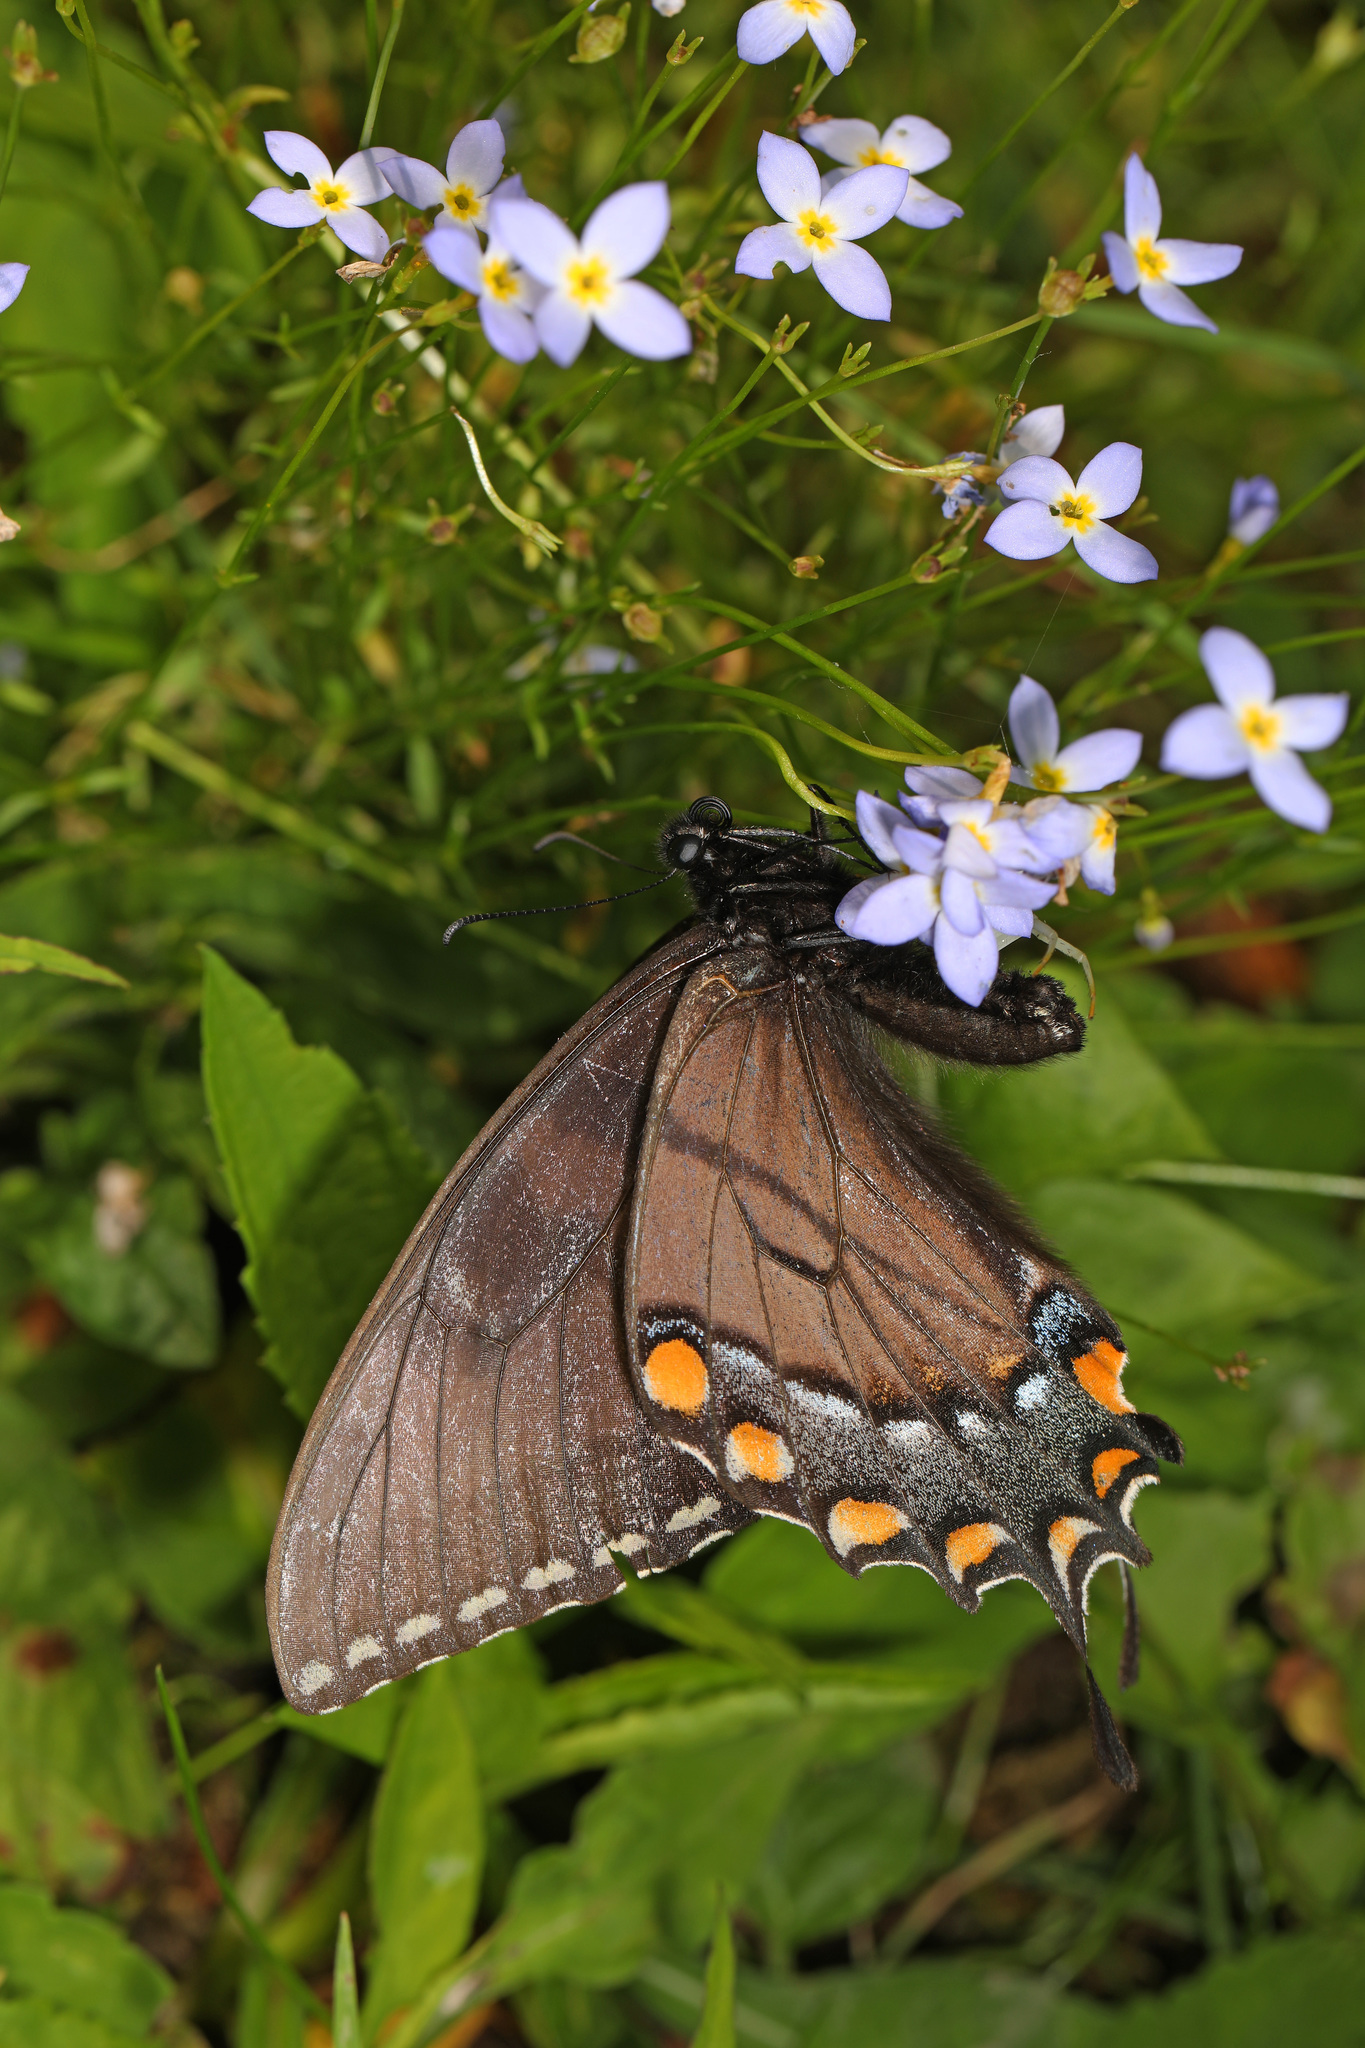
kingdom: Animalia
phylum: Arthropoda
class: Insecta
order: Lepidoptera
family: Papilionidae
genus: Papilio
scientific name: Papilio glaucus
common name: Tiger swallowtail
